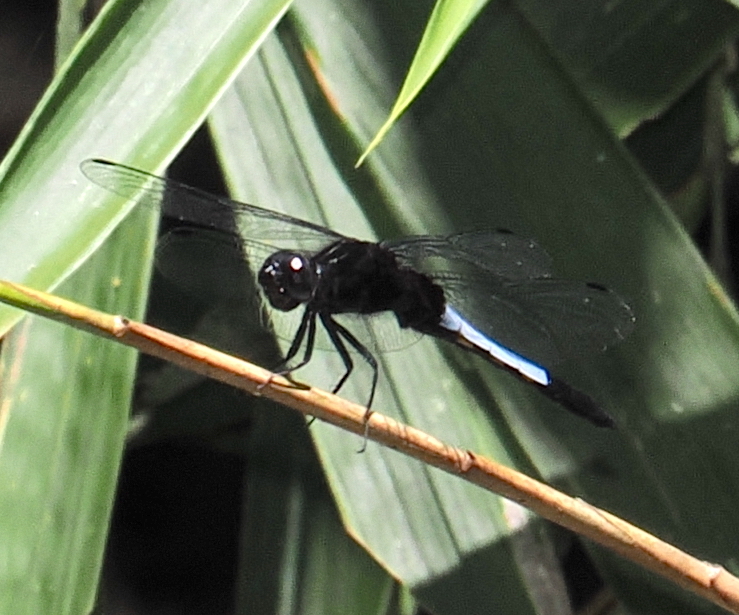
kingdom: Animalia
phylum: Arthropoda
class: Insecta
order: Odonata
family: Libellulidae
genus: Orthetrum
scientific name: Orthetrum triangulare
